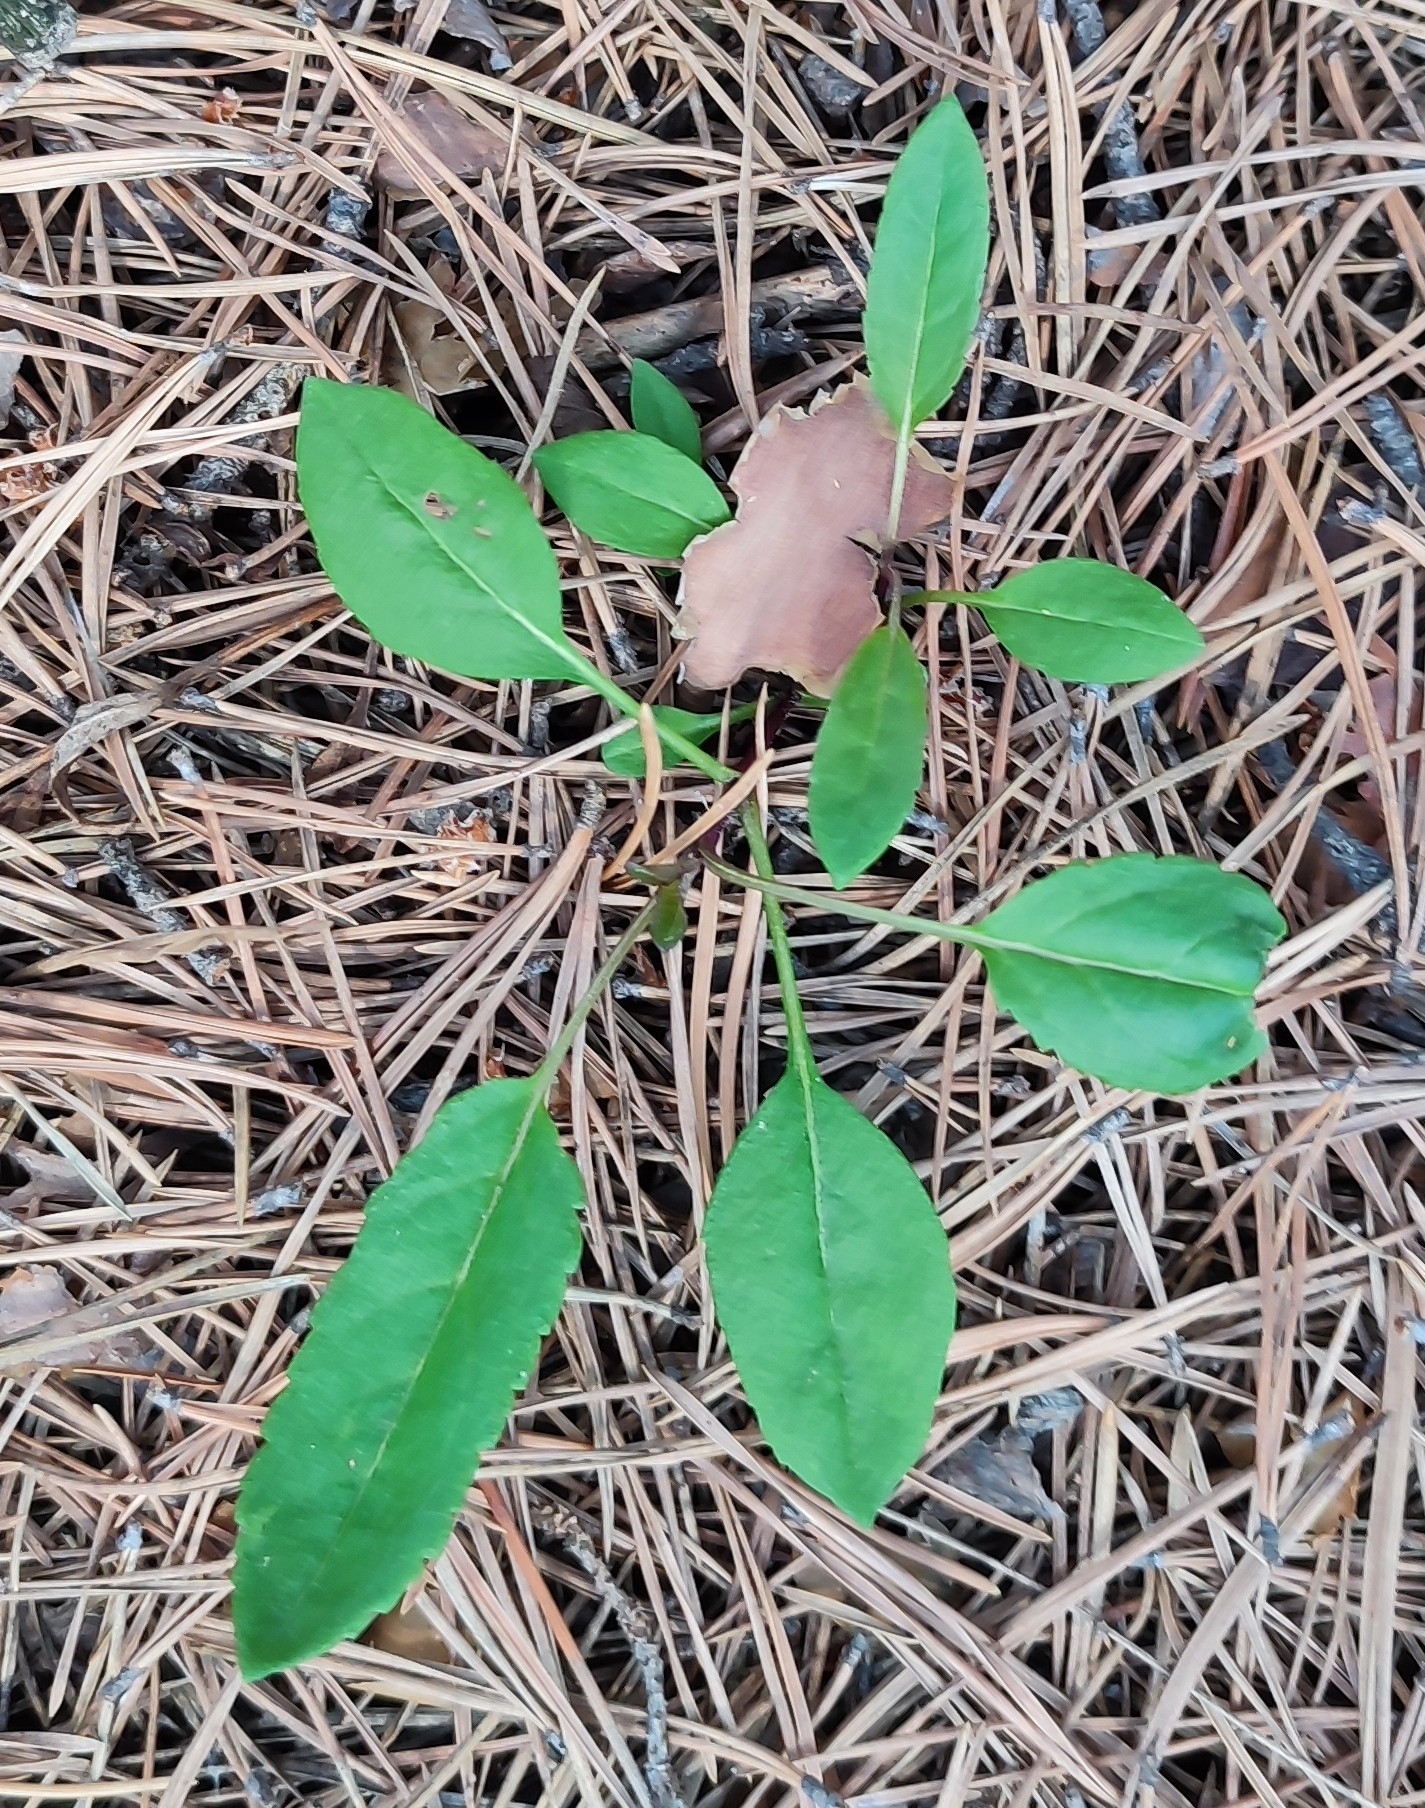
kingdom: Plantae
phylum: Tracheophyta
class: Magnoliopsida
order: Lamiales
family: Plantaginaceae
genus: Veronica
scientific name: Veronica spicata
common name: Spiked speedwell
